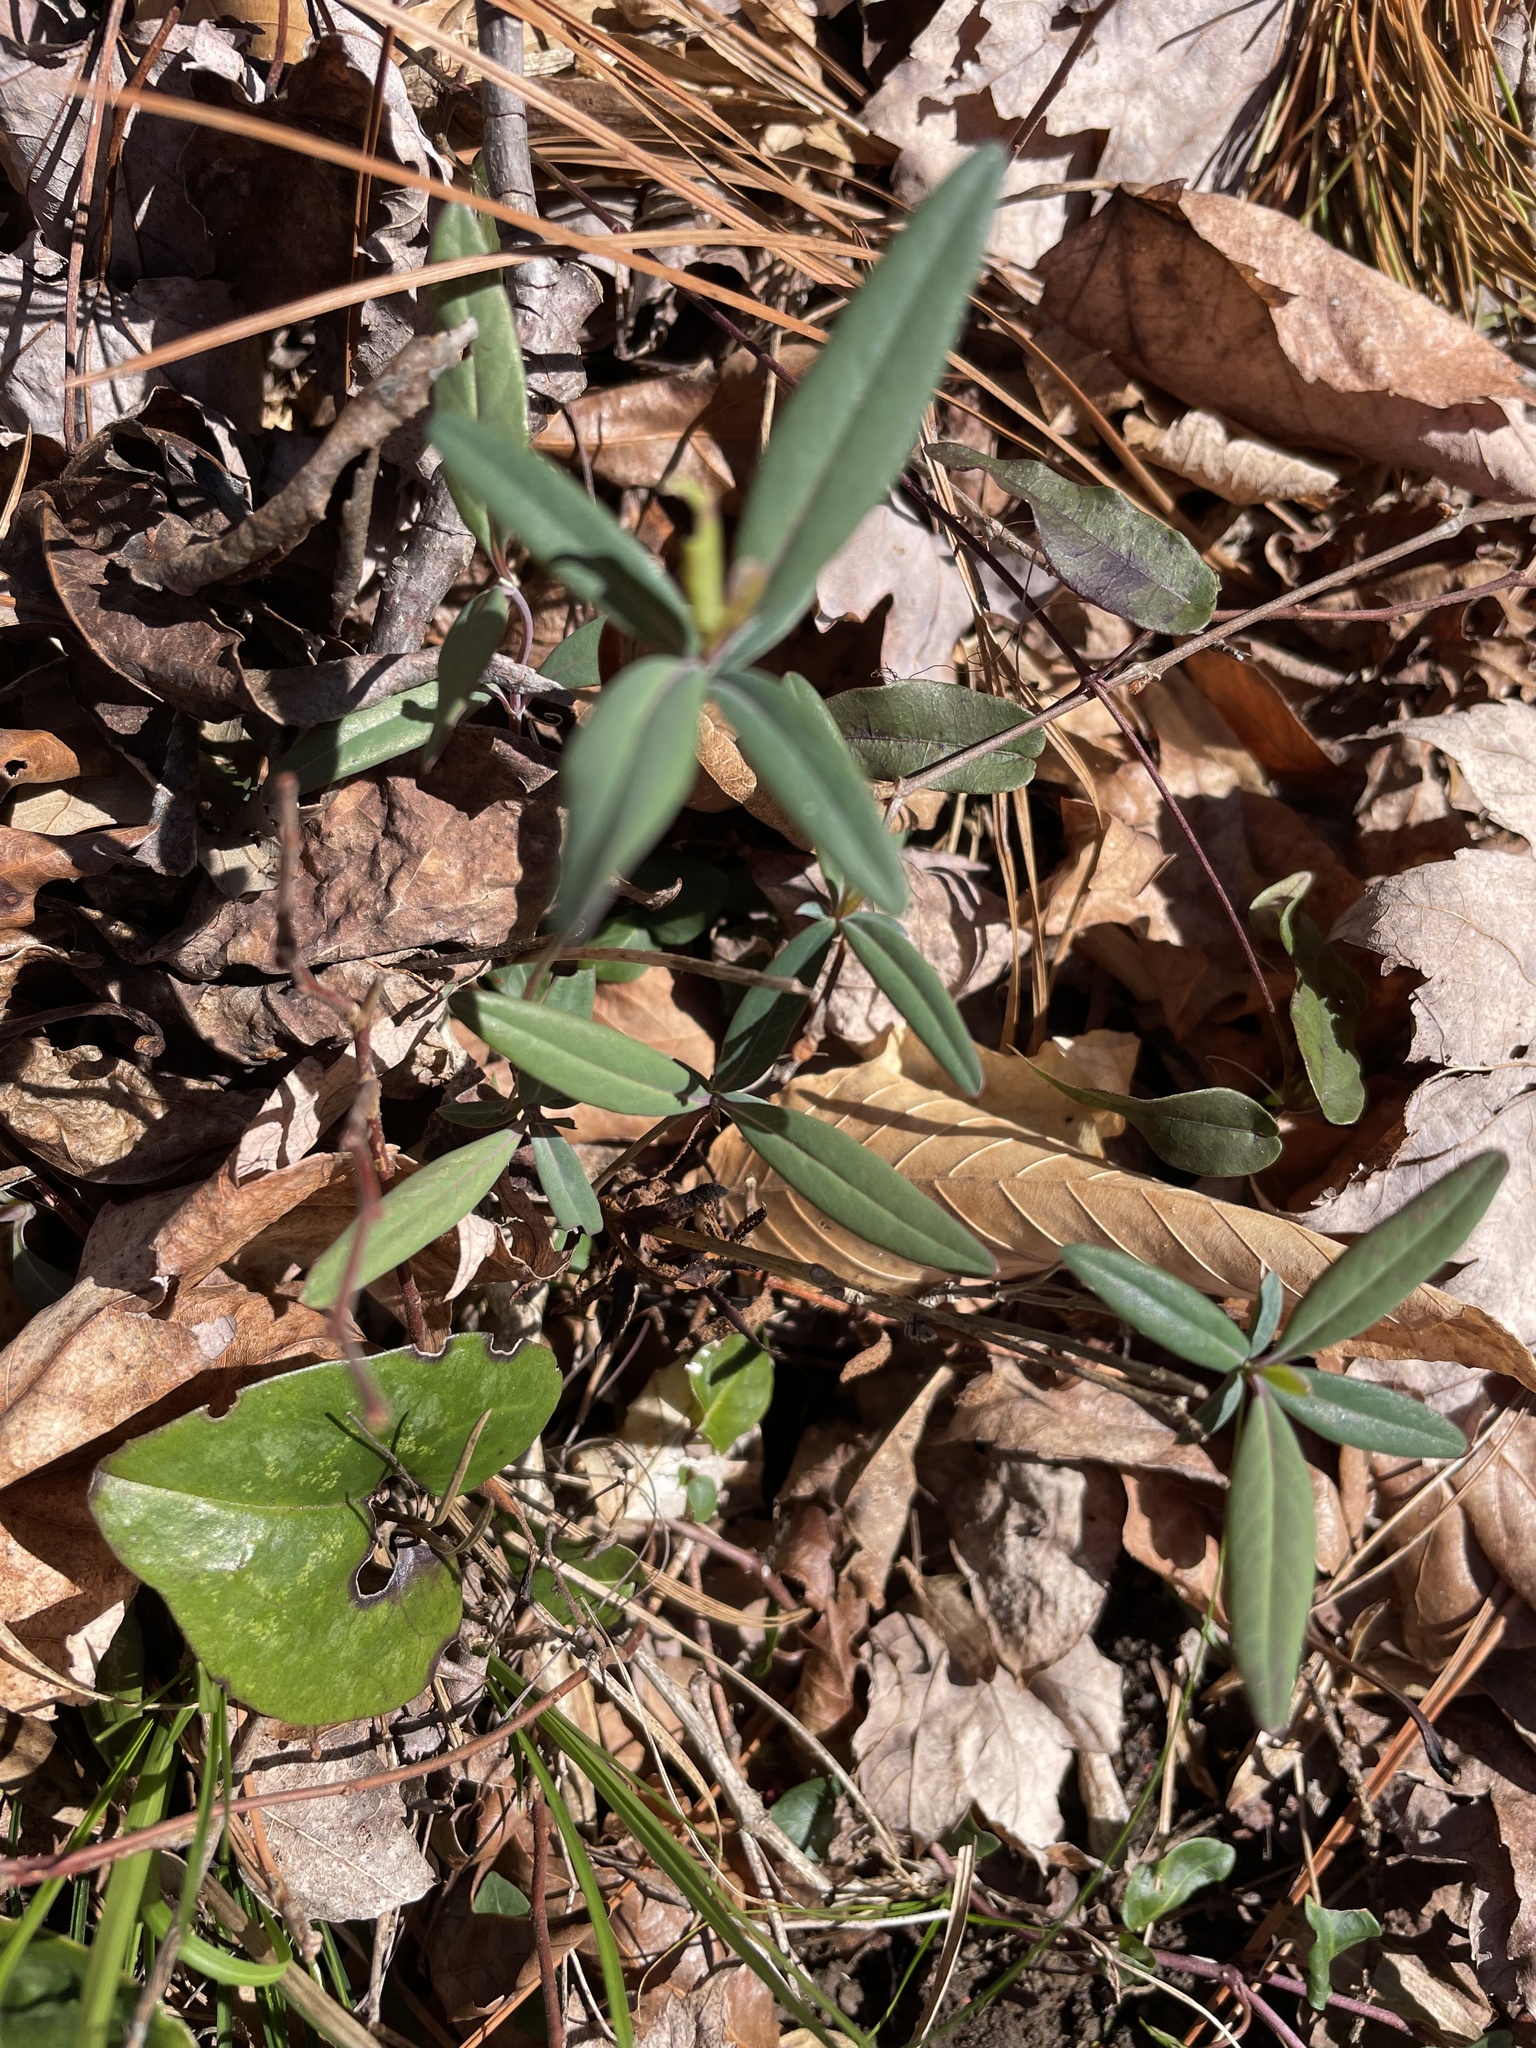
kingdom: Plantae
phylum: Tracheophyta
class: Magnoliopsida
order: Dipsacales
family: Caprifoliaceae
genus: Lonicera
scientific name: Lonicera sempervirens
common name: Coral honeysuckle
